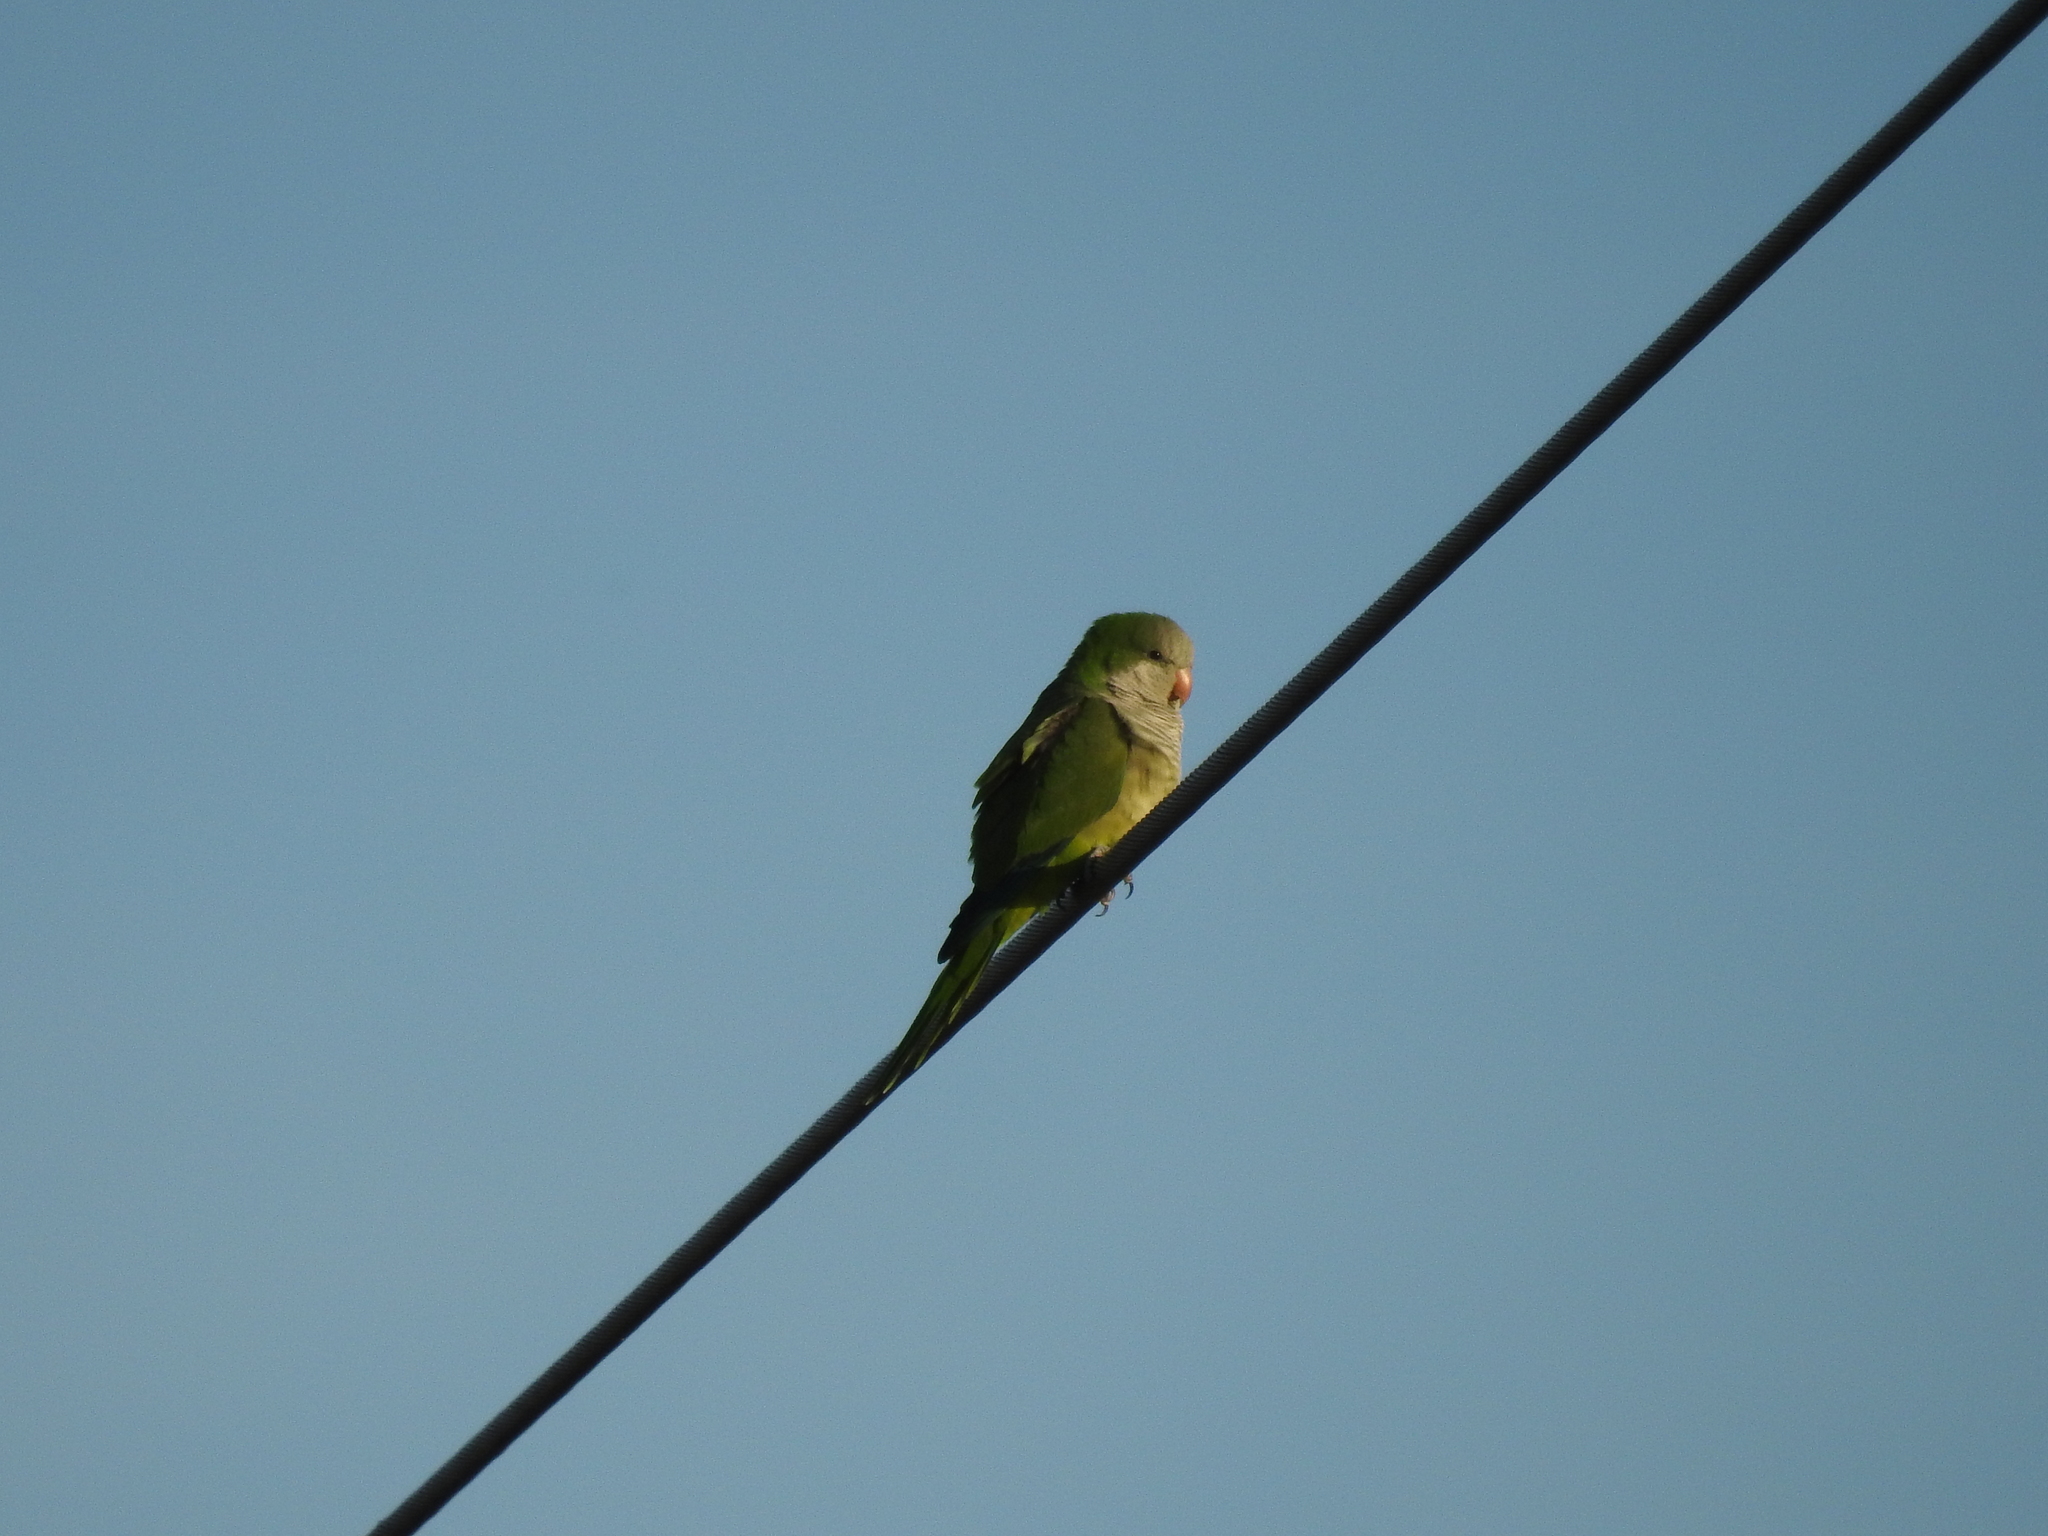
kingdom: Animalia
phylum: Chordata
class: Aves
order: Psittaciformes
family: Psittacidae
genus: Myiopsitta
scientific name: Myiopsitta monachus
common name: Monk parakeet
